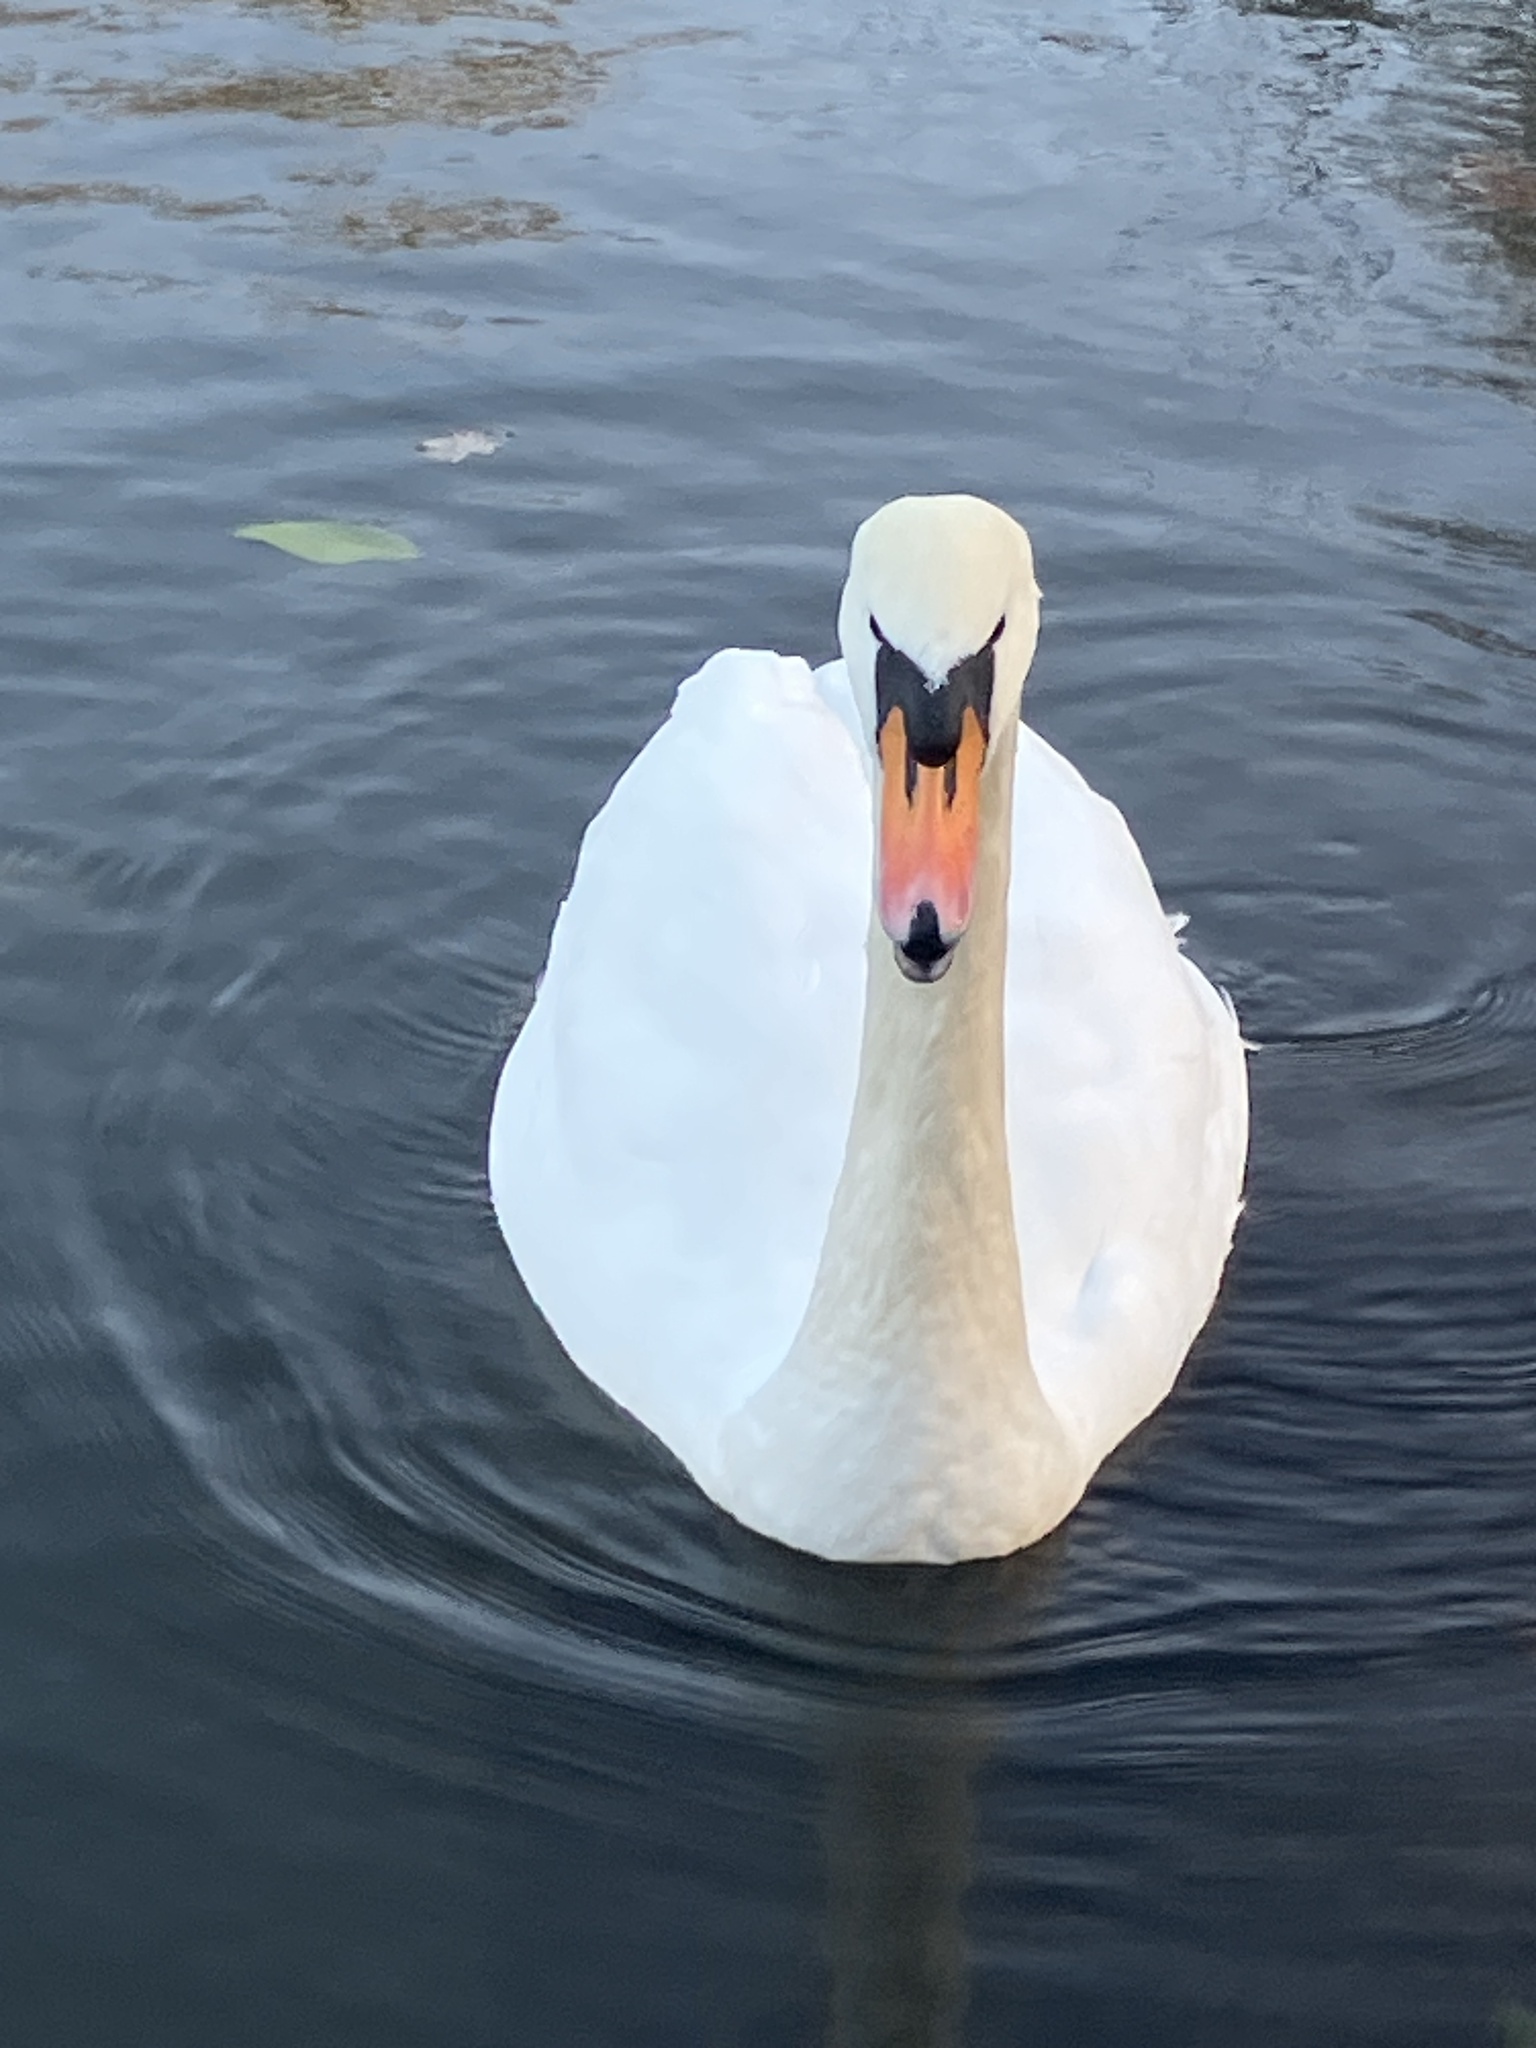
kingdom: Animalia
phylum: Chordata
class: Aves
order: Anseriformes
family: Anatidae
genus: Cygnus
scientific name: Cygnus olor
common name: Mute swan
